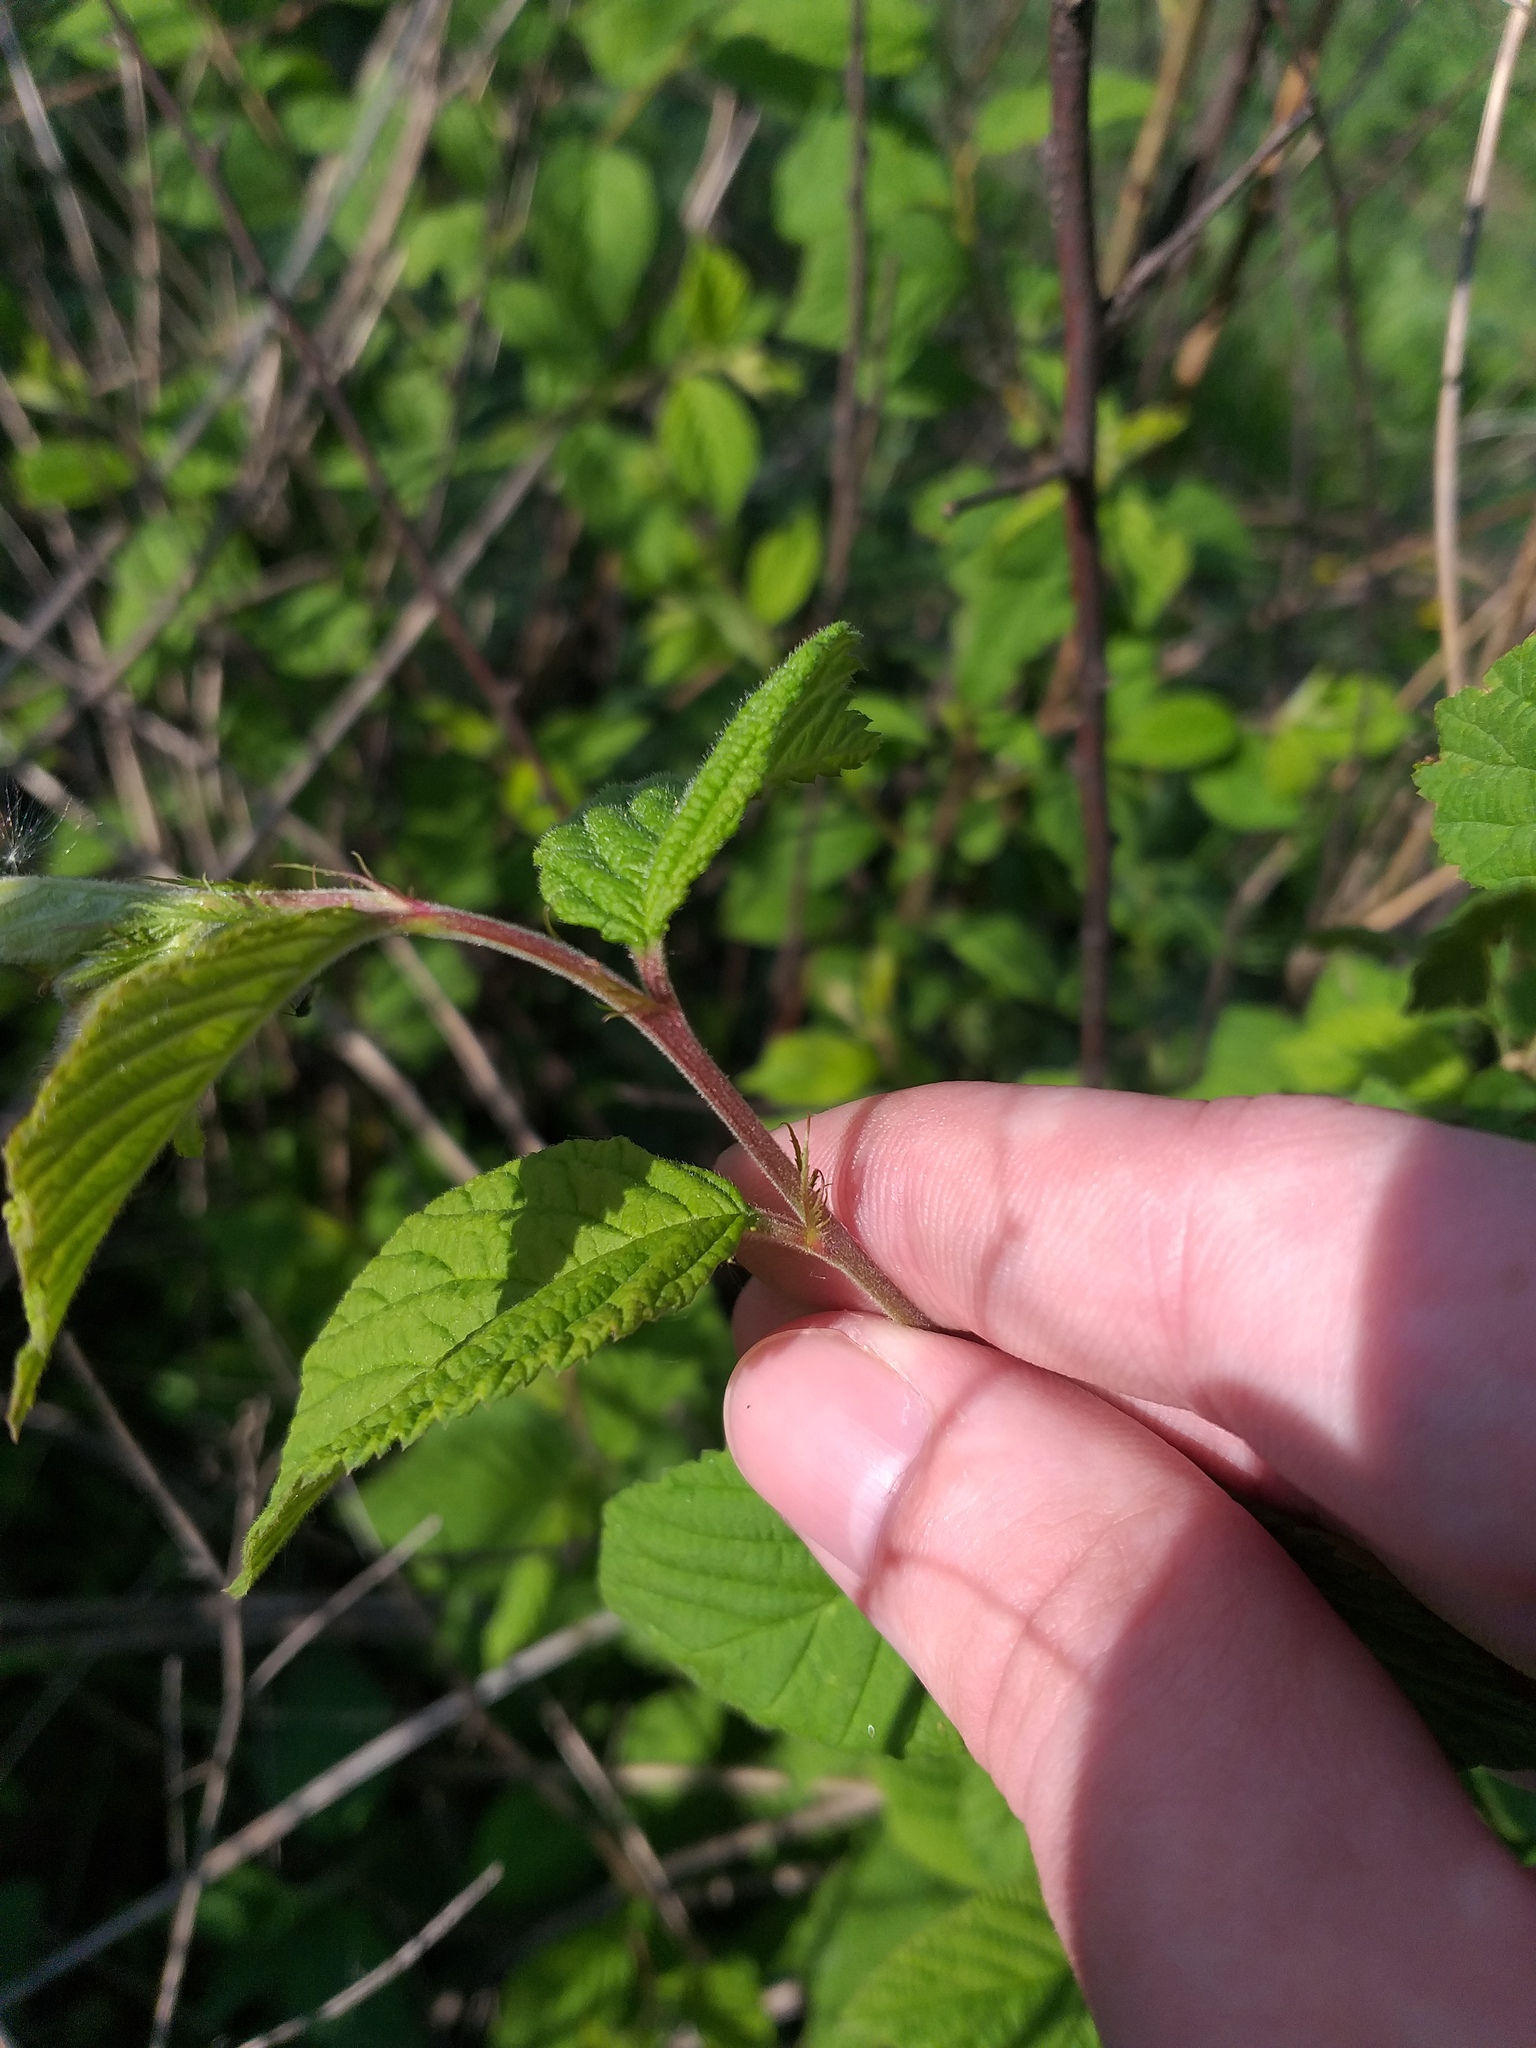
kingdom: Plantae
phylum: Tracheophyta
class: Magnoliopsida
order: Rosales
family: Rosaceae
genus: Prunus
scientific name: Prunus tomentosa
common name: Nanking cherry
